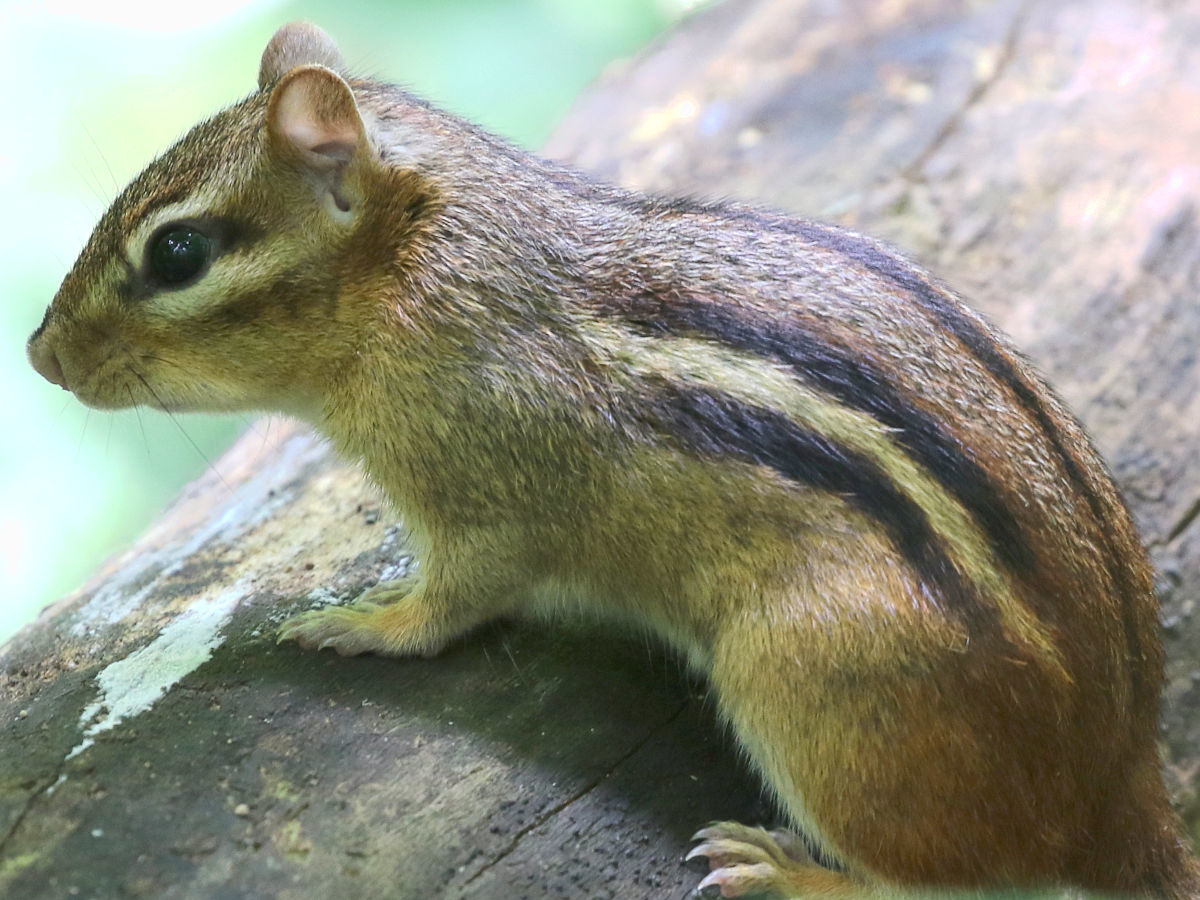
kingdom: Animalia
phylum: Chordata
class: Mammalia
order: Rodentia
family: Sciuridae
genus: Tamias
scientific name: Tamias striatus
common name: Eastern chipmunk
